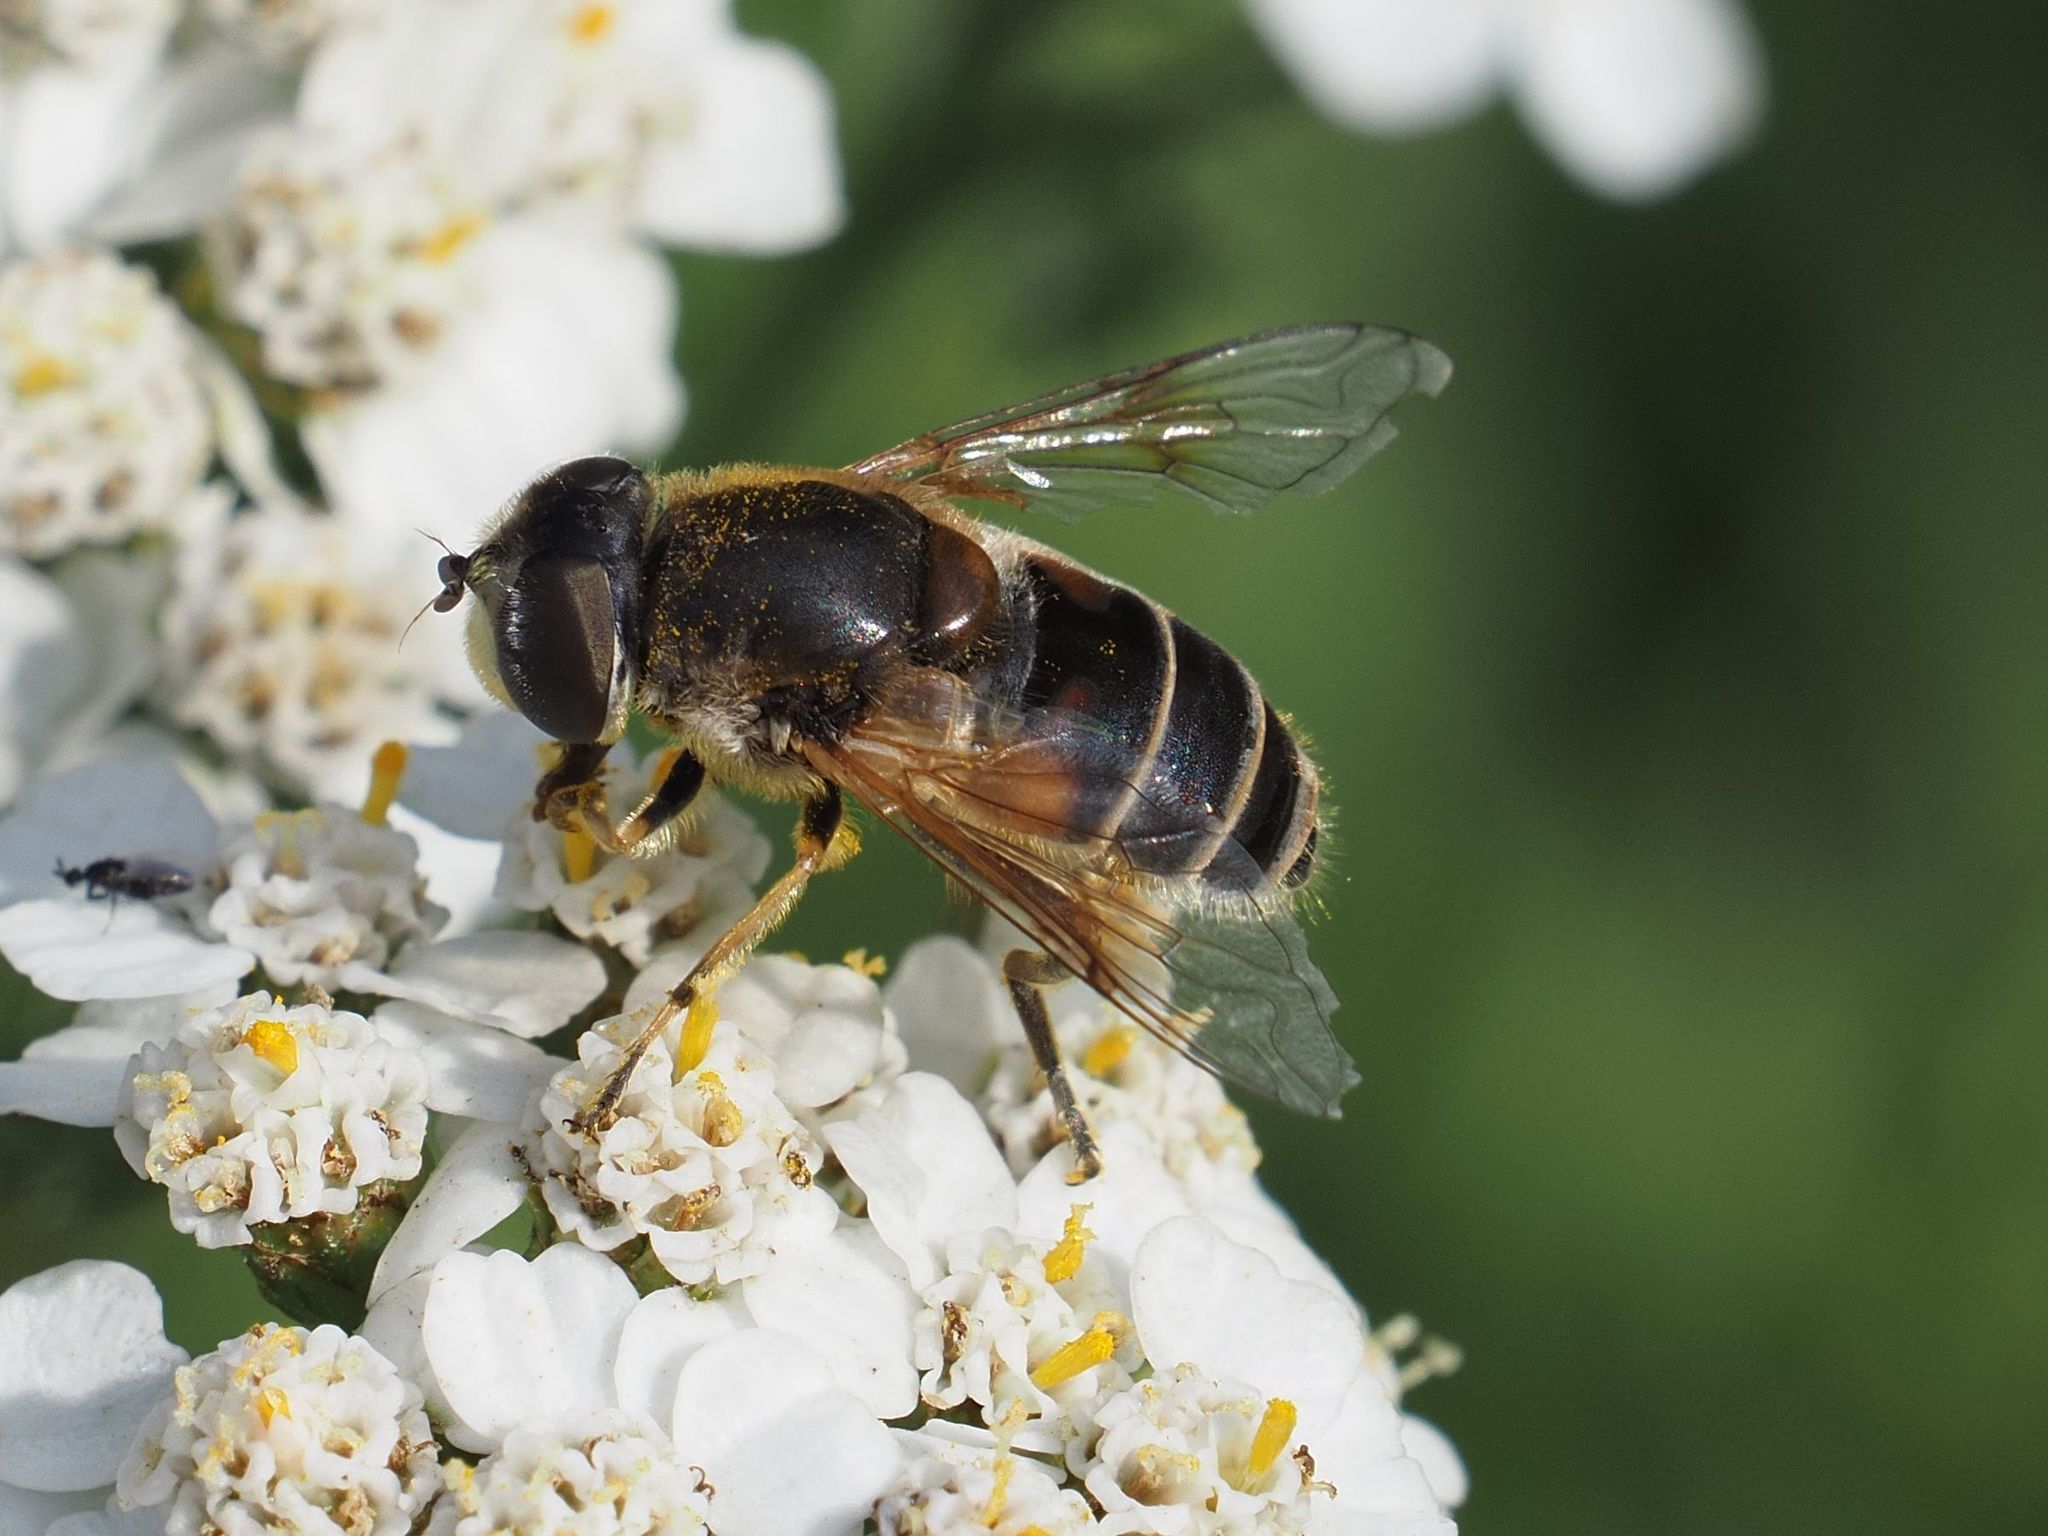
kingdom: Animalia
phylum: Arthropoda
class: Insecta
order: Diptera
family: Syrphidae
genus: Eristalis
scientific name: Eristalis arbustorum
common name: Hover fly
